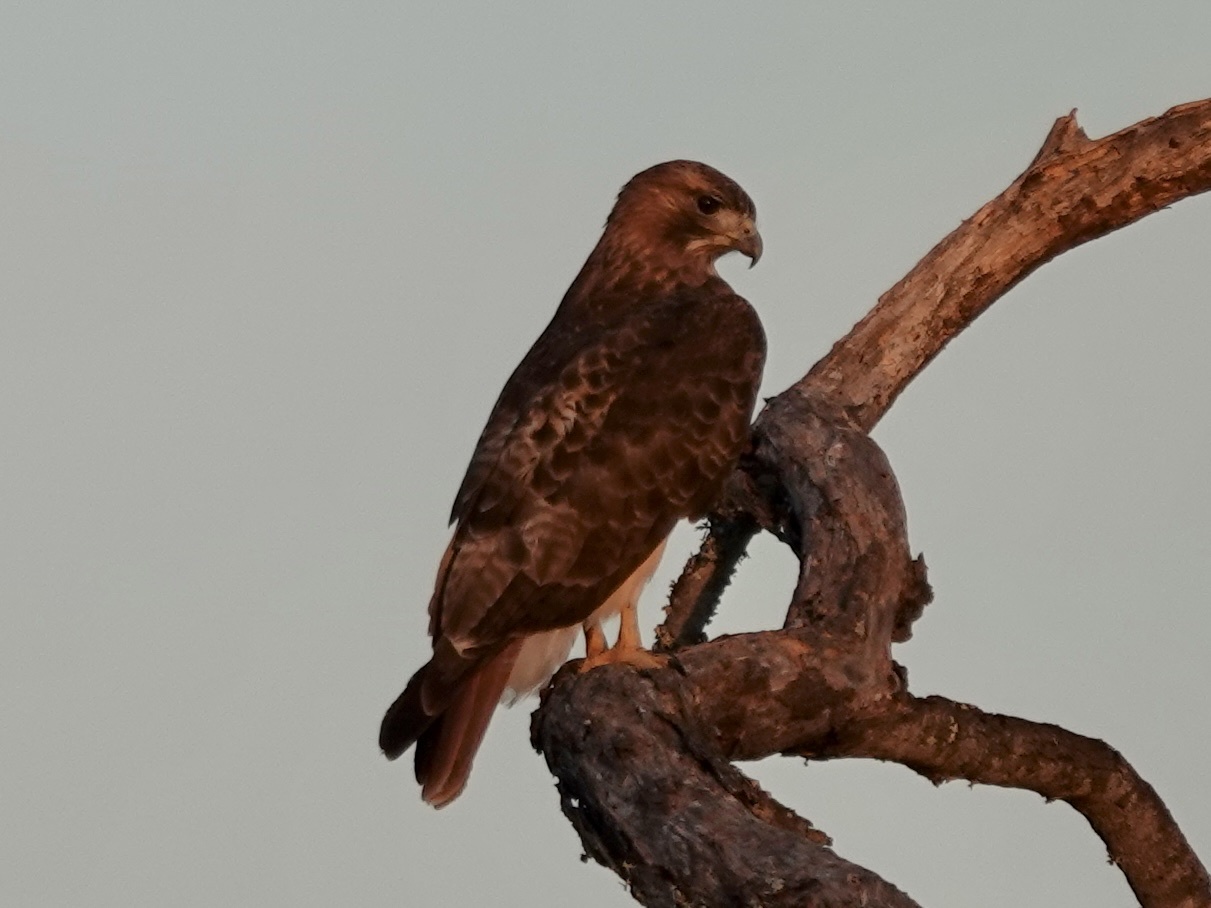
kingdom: Animalia
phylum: Chordata
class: Aves
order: Accipitriformes
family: Accipitridae
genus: Buteo
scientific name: Buteo jamaicensis
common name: Red-tailed hawk
